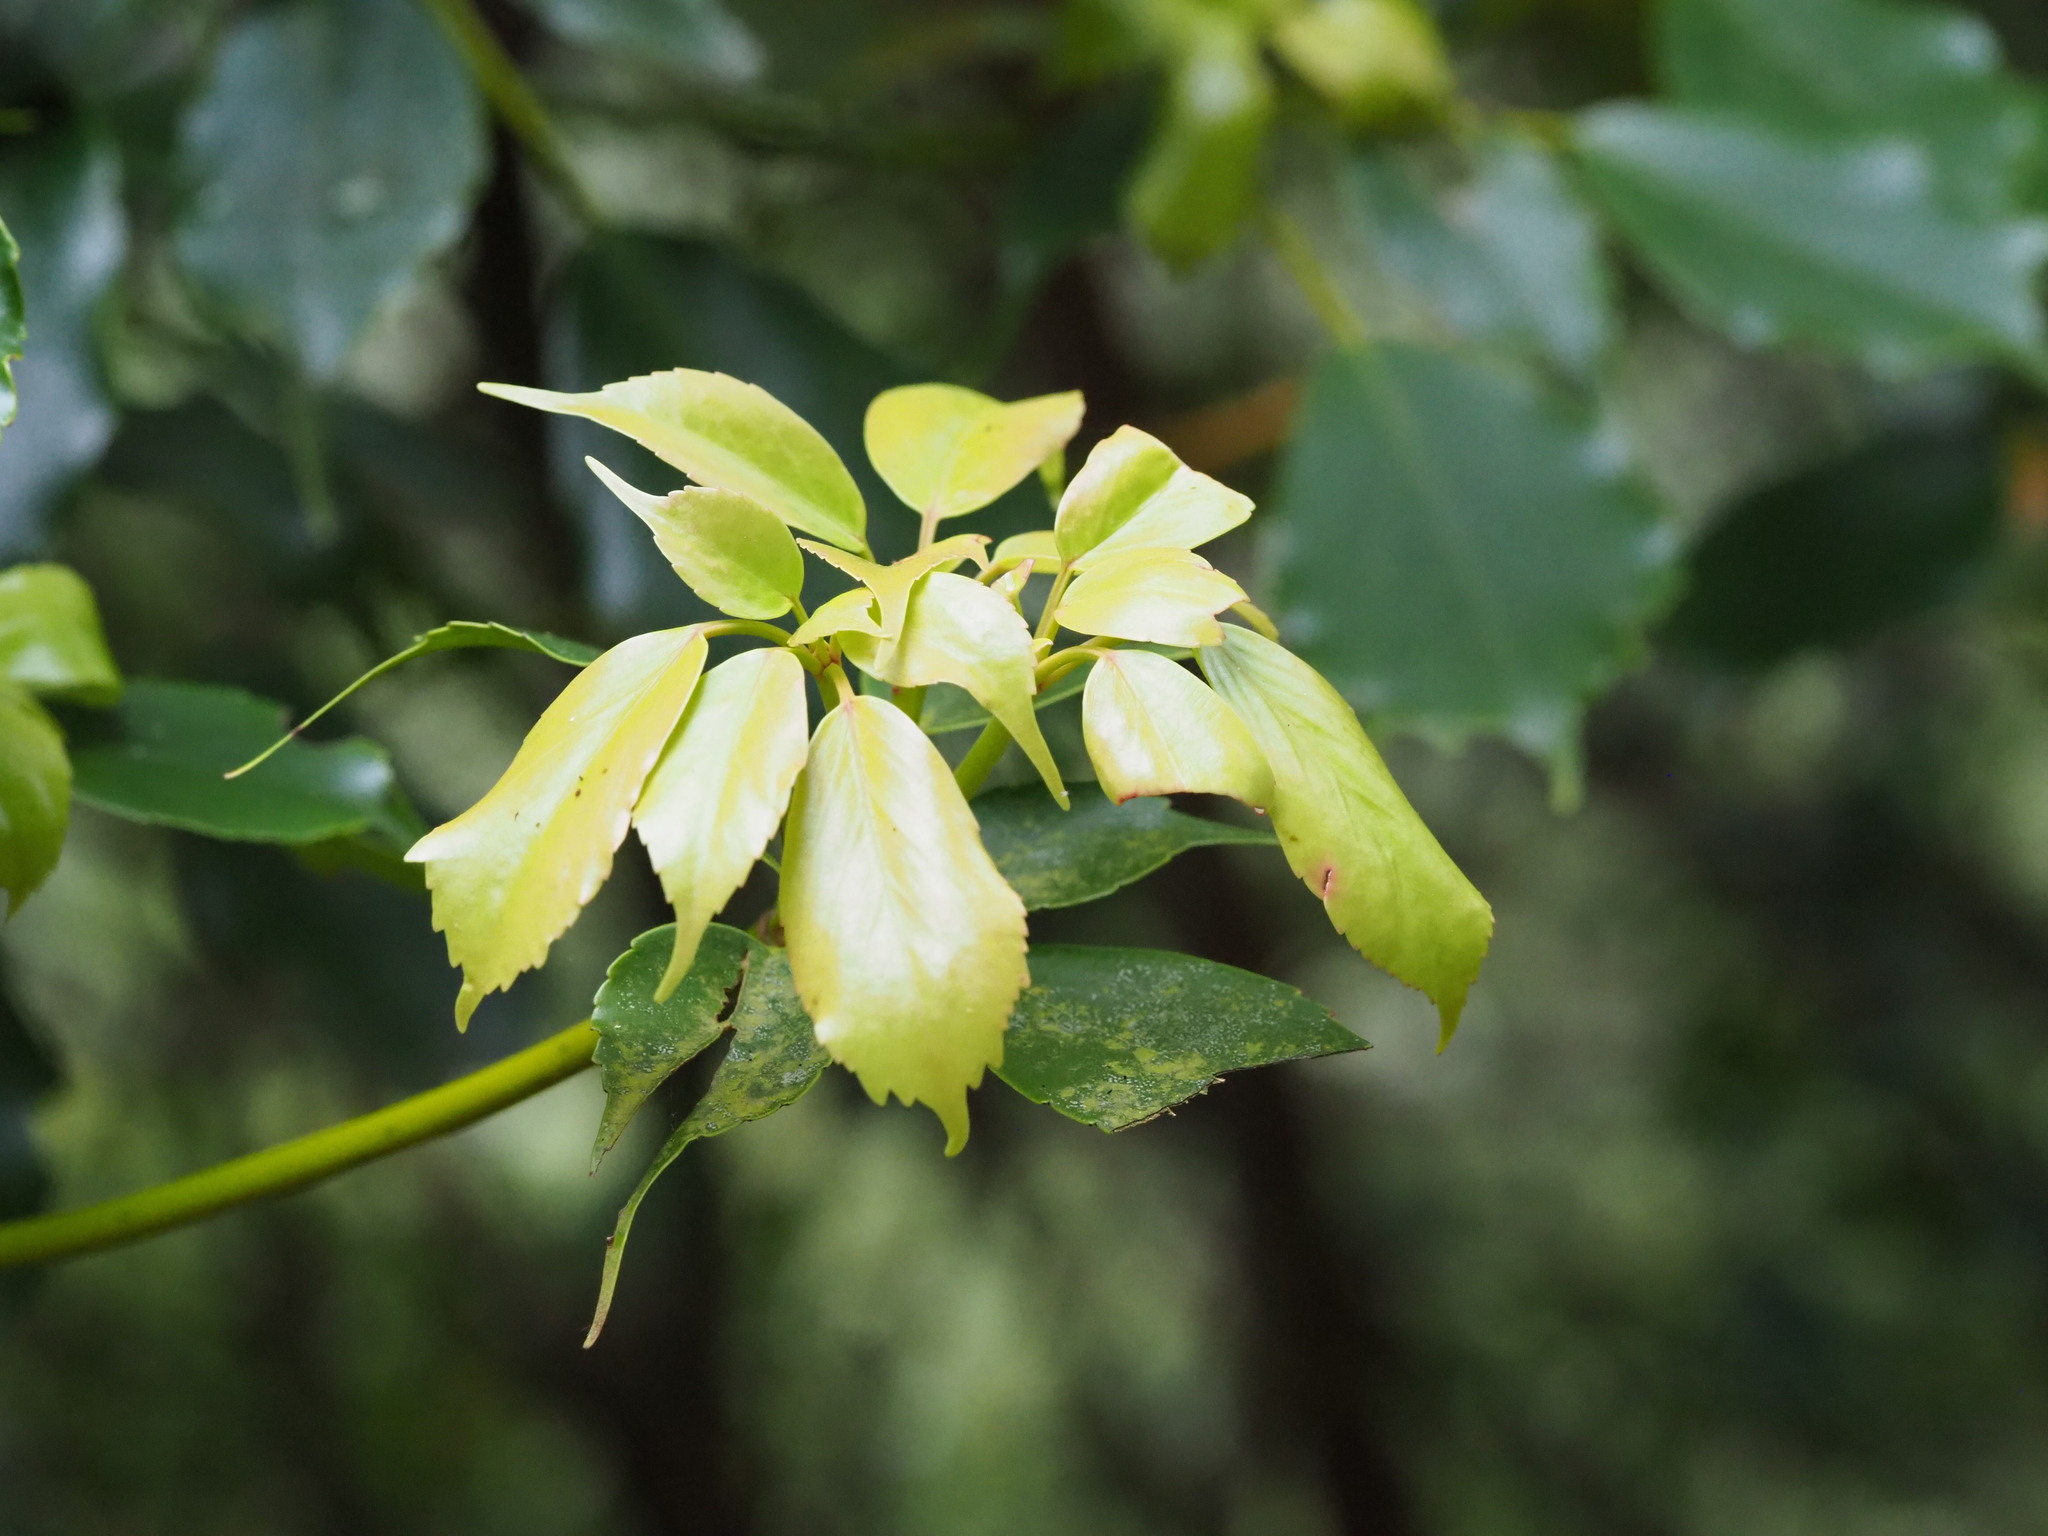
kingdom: Plantae
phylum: Tracheophyta
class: Magnoliopsida
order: Trochodendrales
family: Trochodendraceae
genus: Trochodendron
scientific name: Trochodendron aralioides
